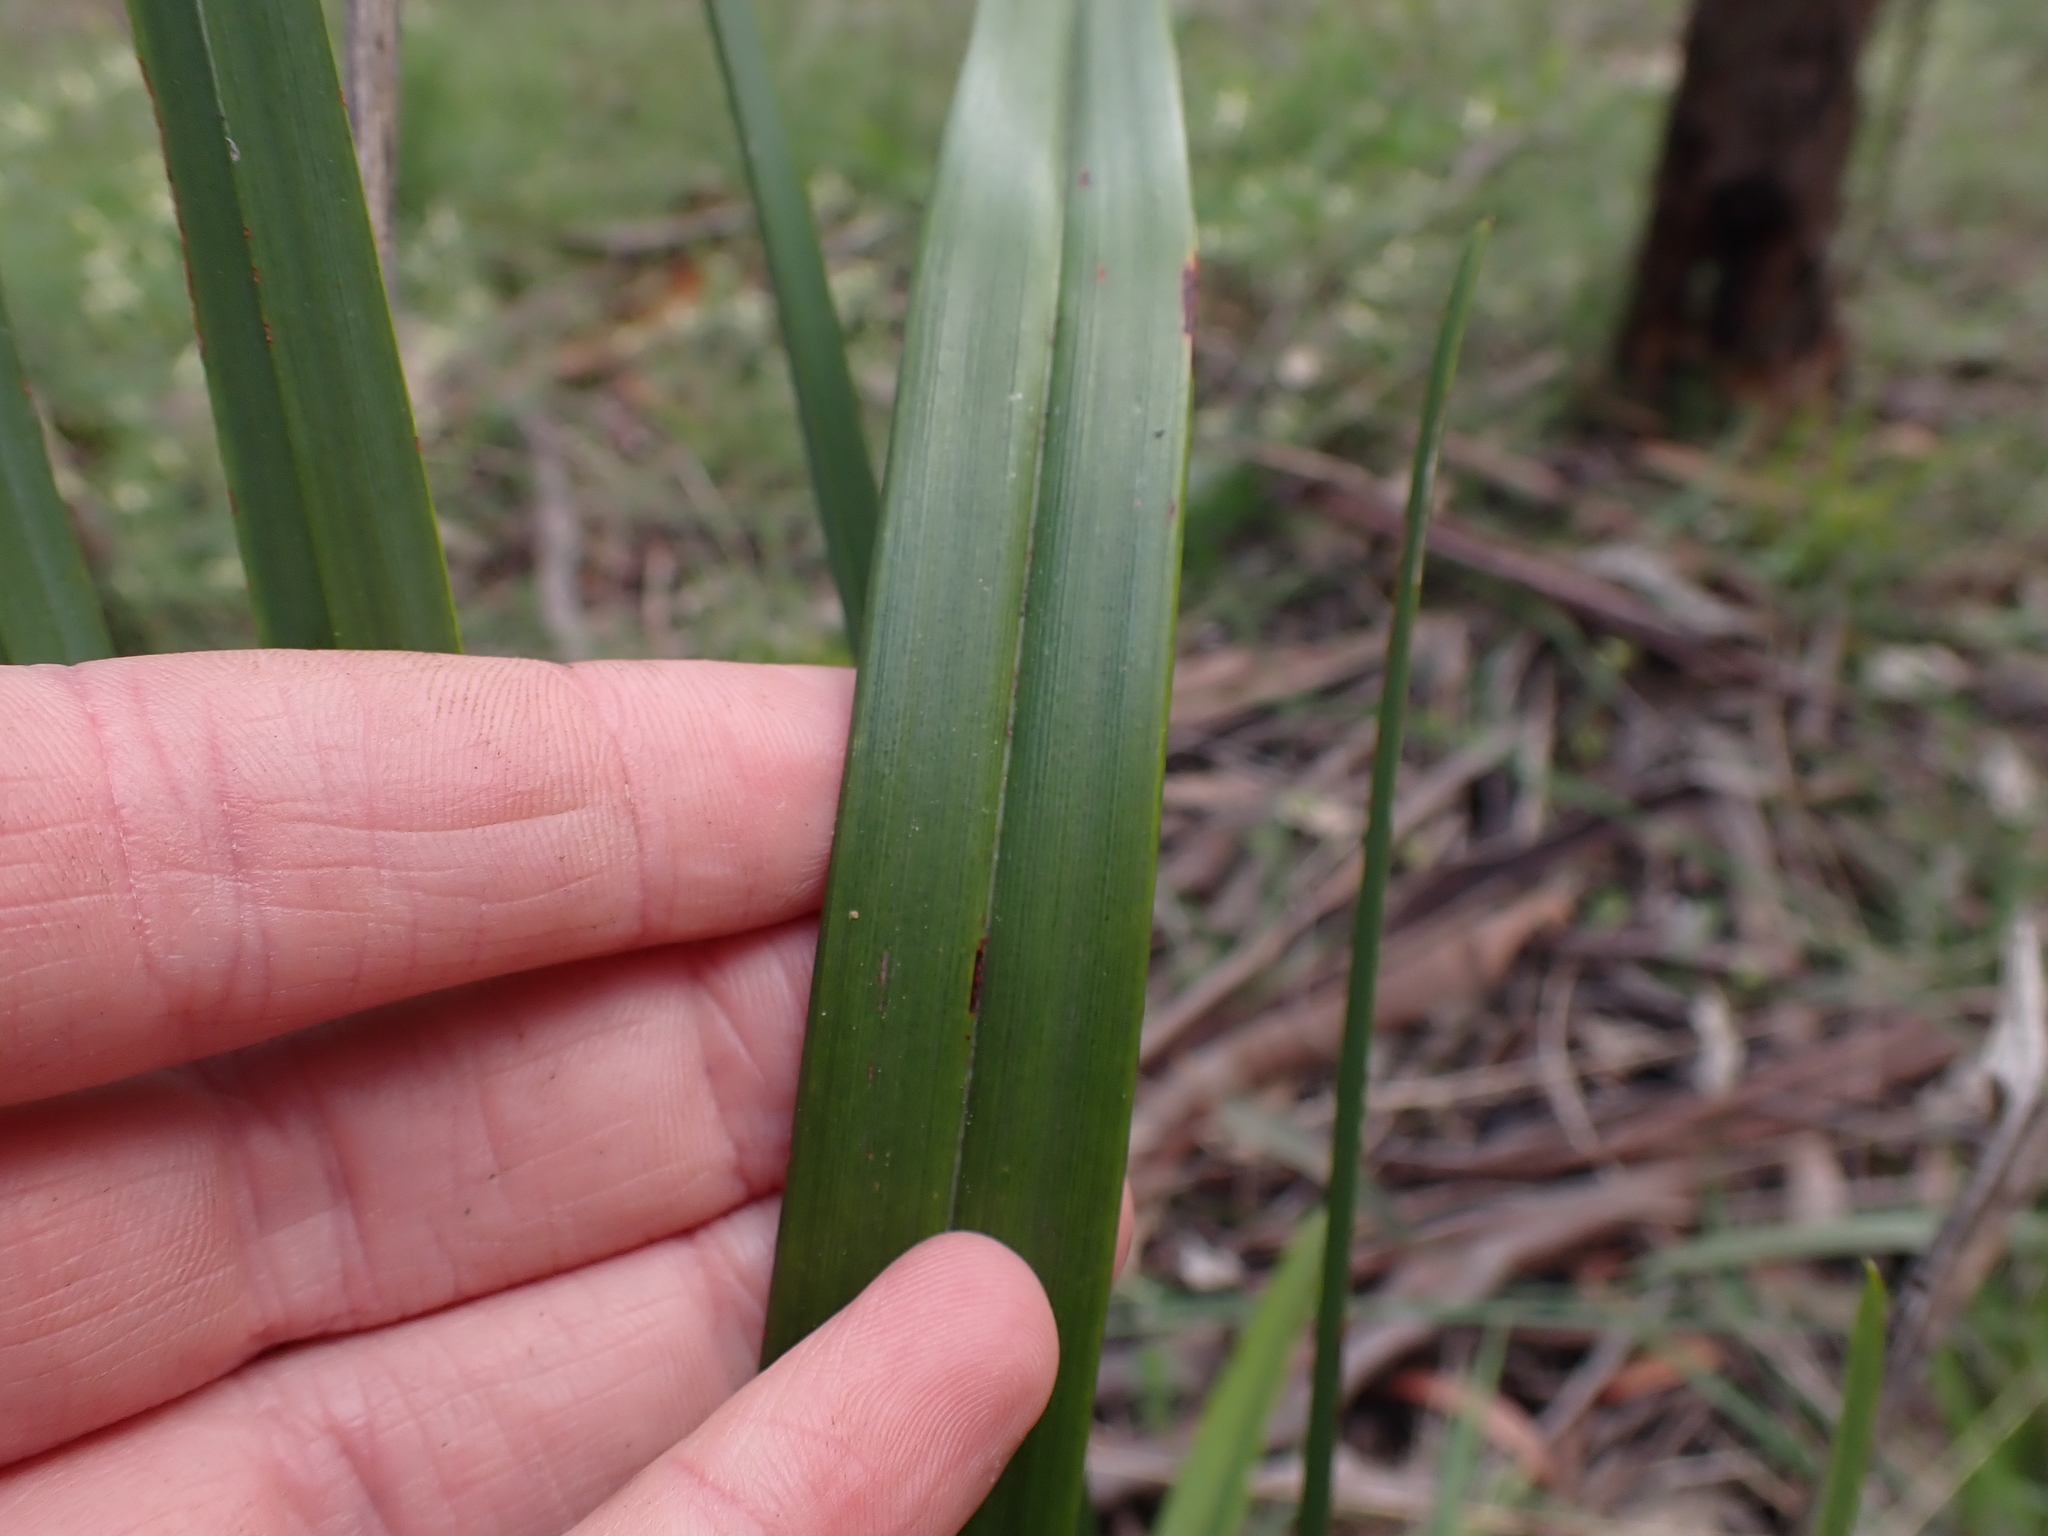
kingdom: Plantae
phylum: Tracheophyta
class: Liliopsida
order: Asparagales
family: Asphodelaceae
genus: Dianella
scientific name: Dianella longifolia
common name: Blue flax-lily
